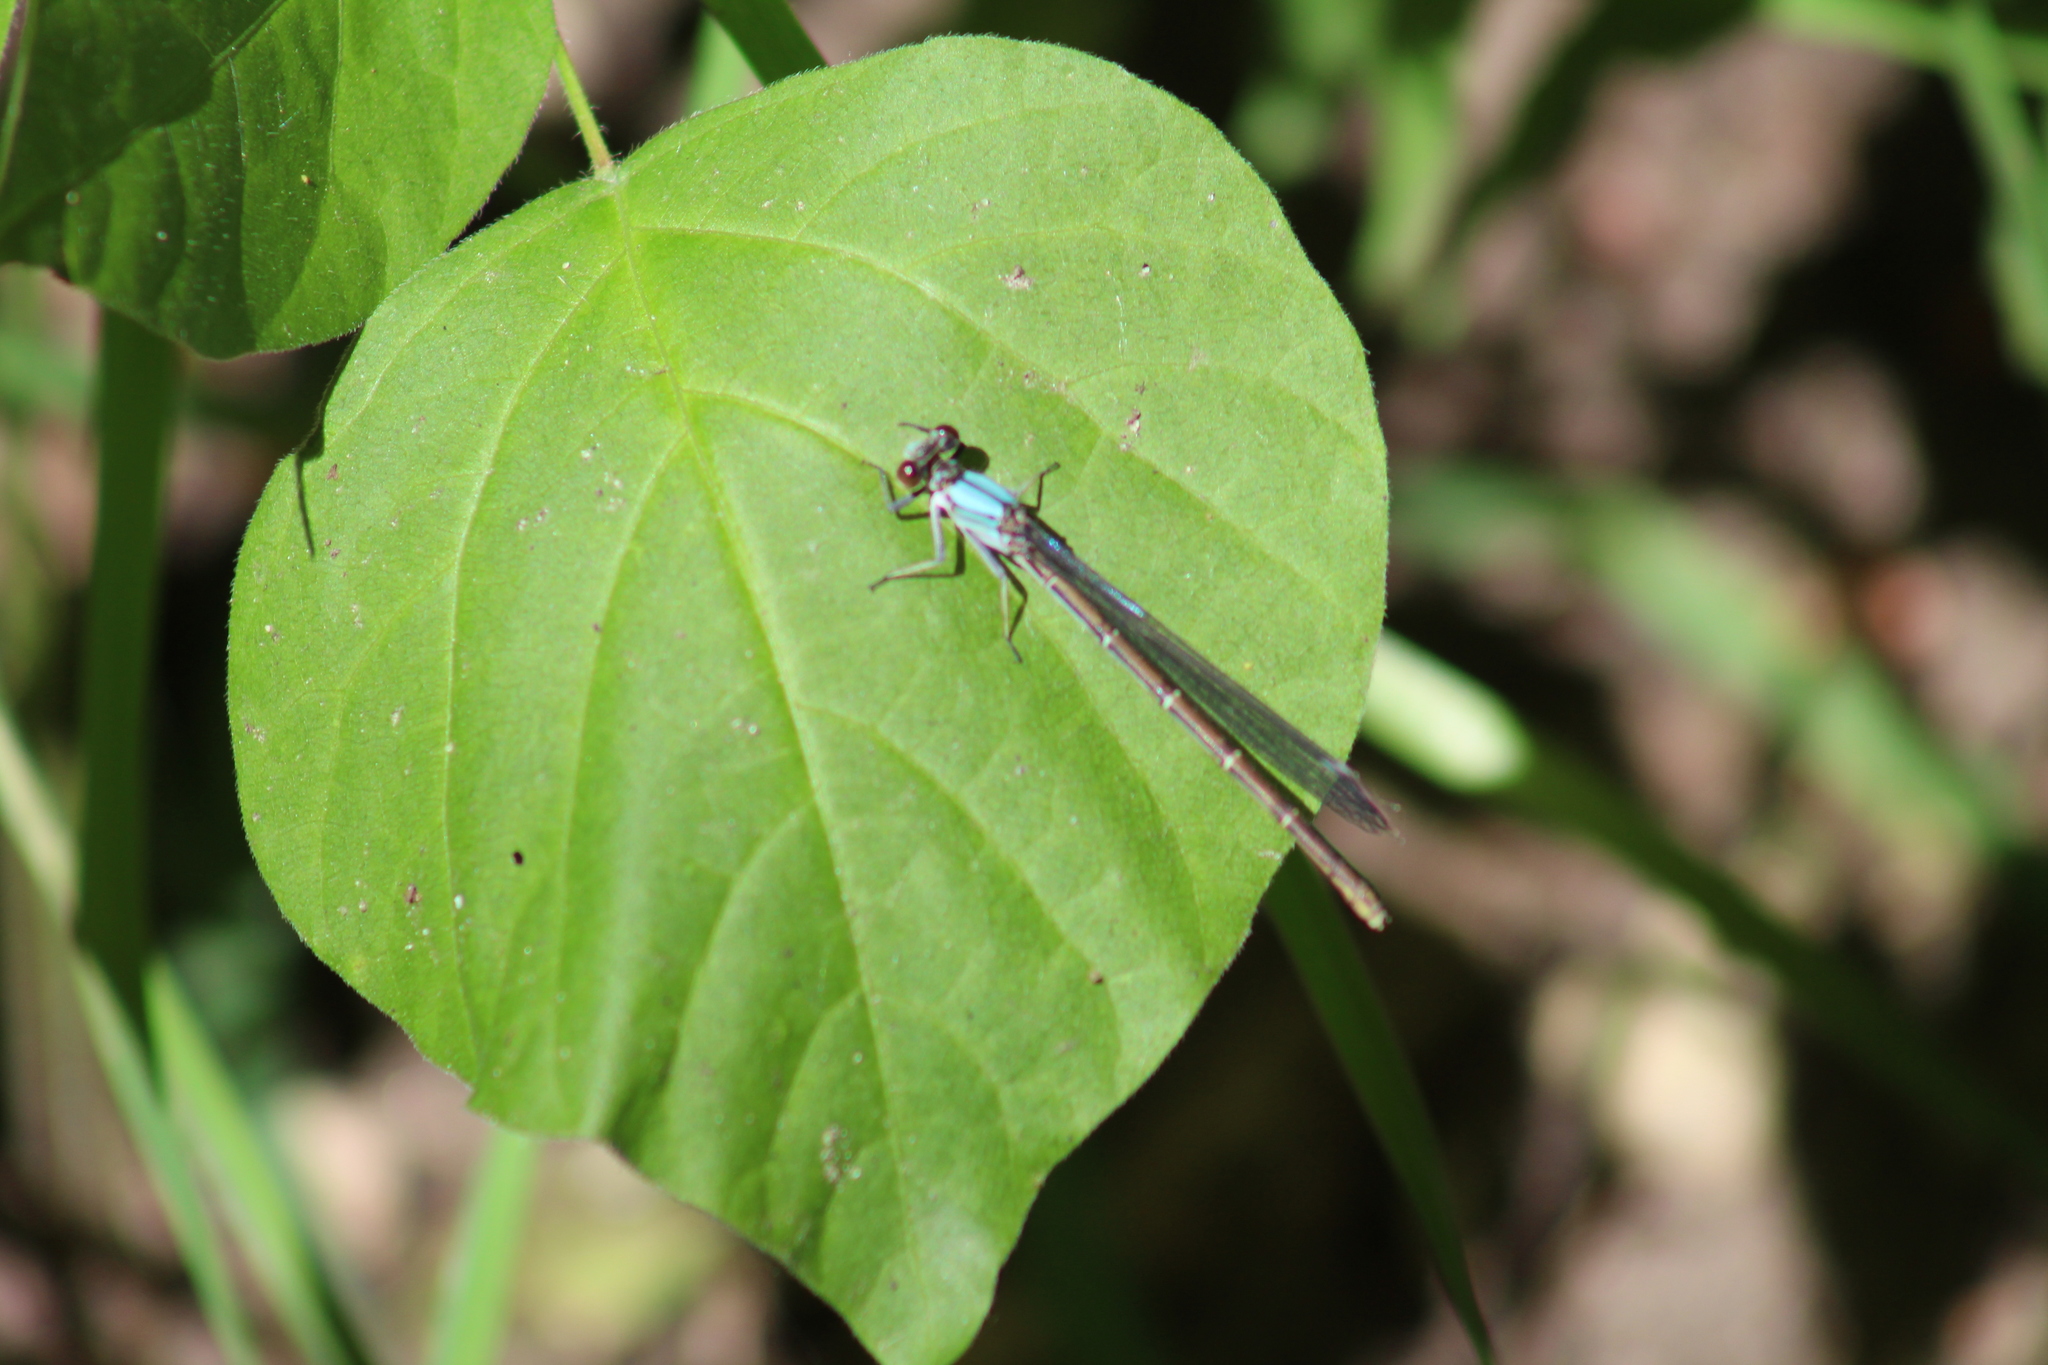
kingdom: Animalia
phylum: Arthropoda
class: Insecta
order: Odonata
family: Coenagrionidae
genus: Argia
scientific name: Argia moesta
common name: Powdered dancer
